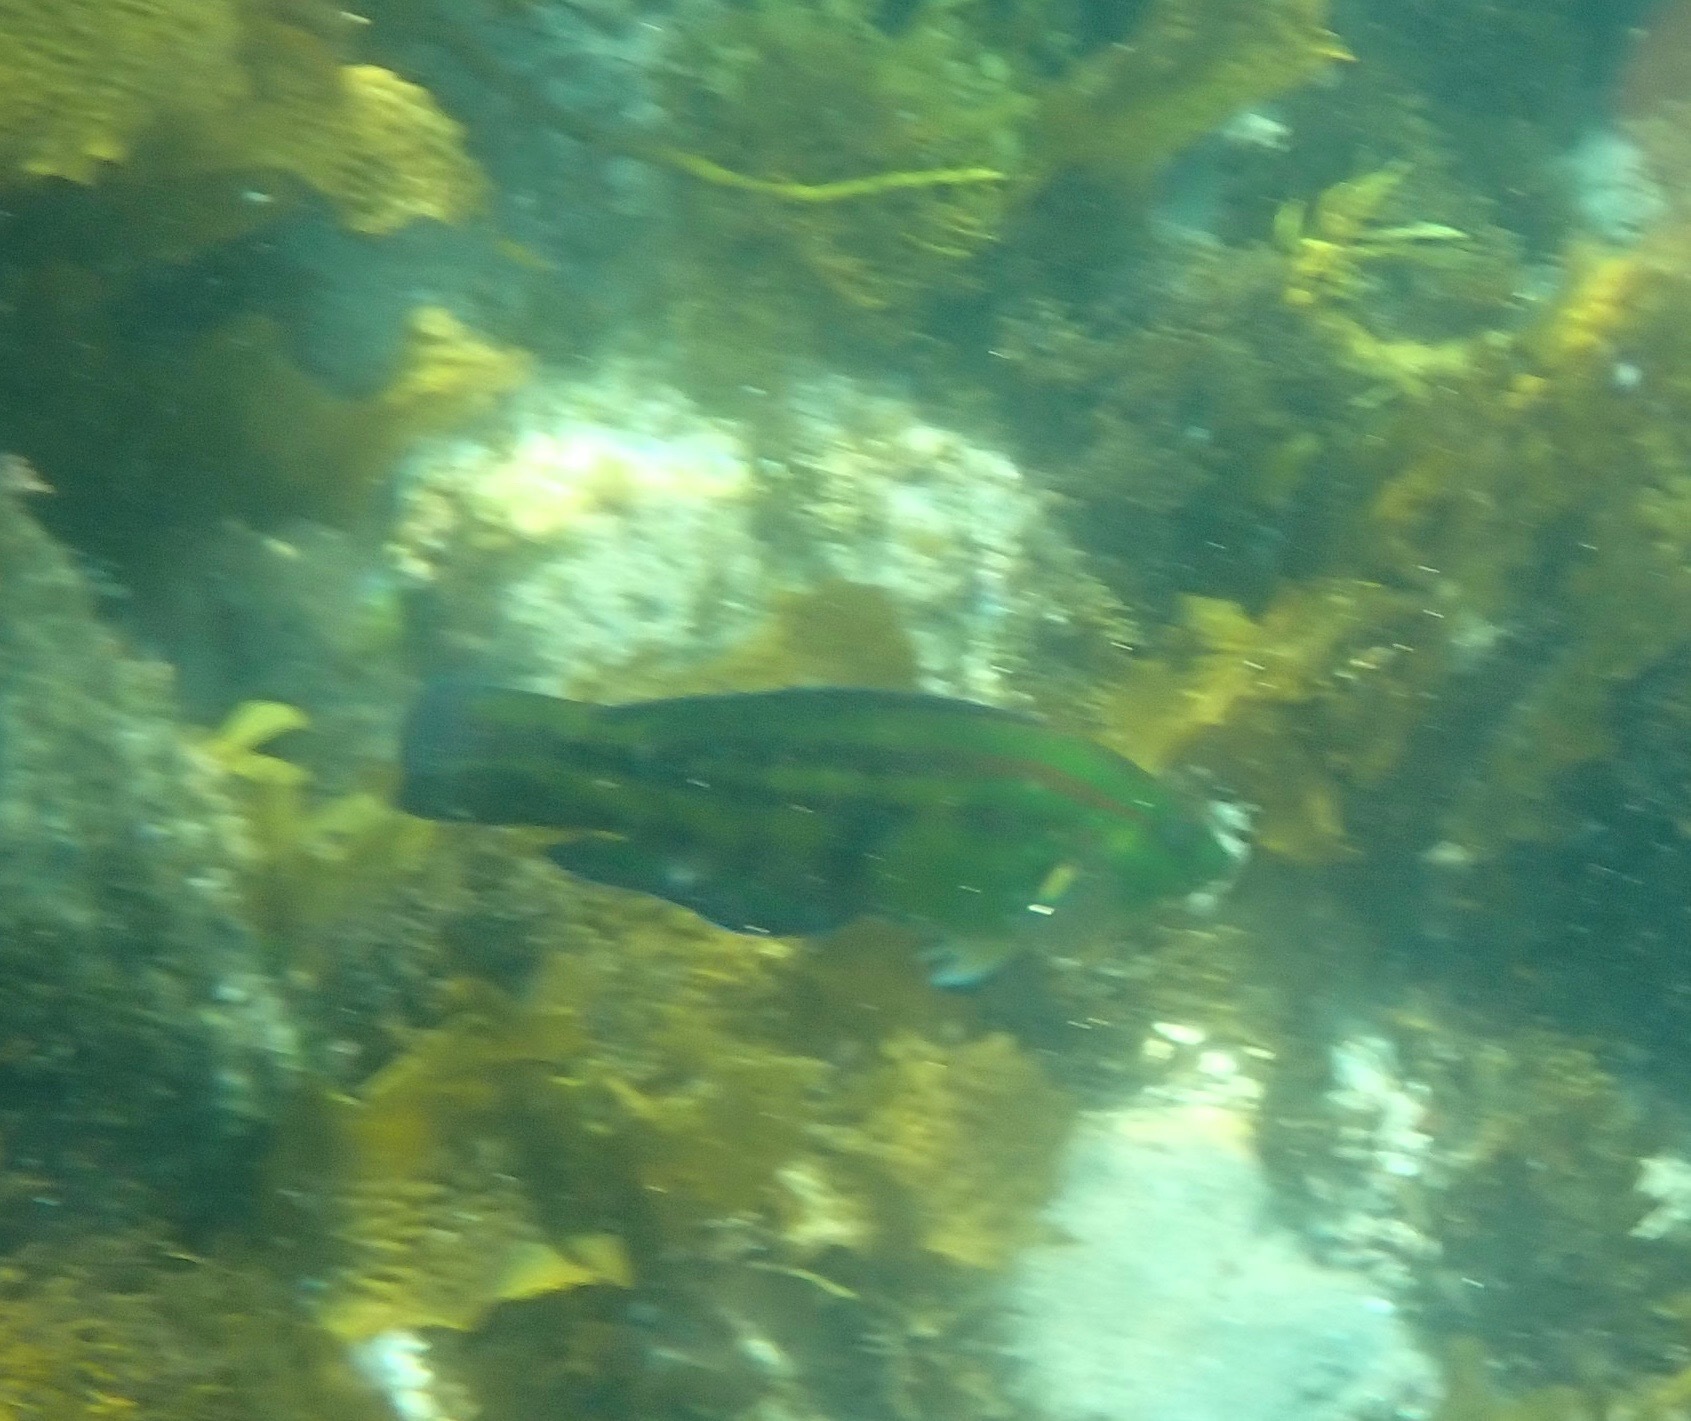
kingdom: Animalia
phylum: Chordata
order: Perciformes
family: Labridae
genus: Pictilabrus
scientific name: Pictilabrus laticlavius
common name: Patrician wrasse
